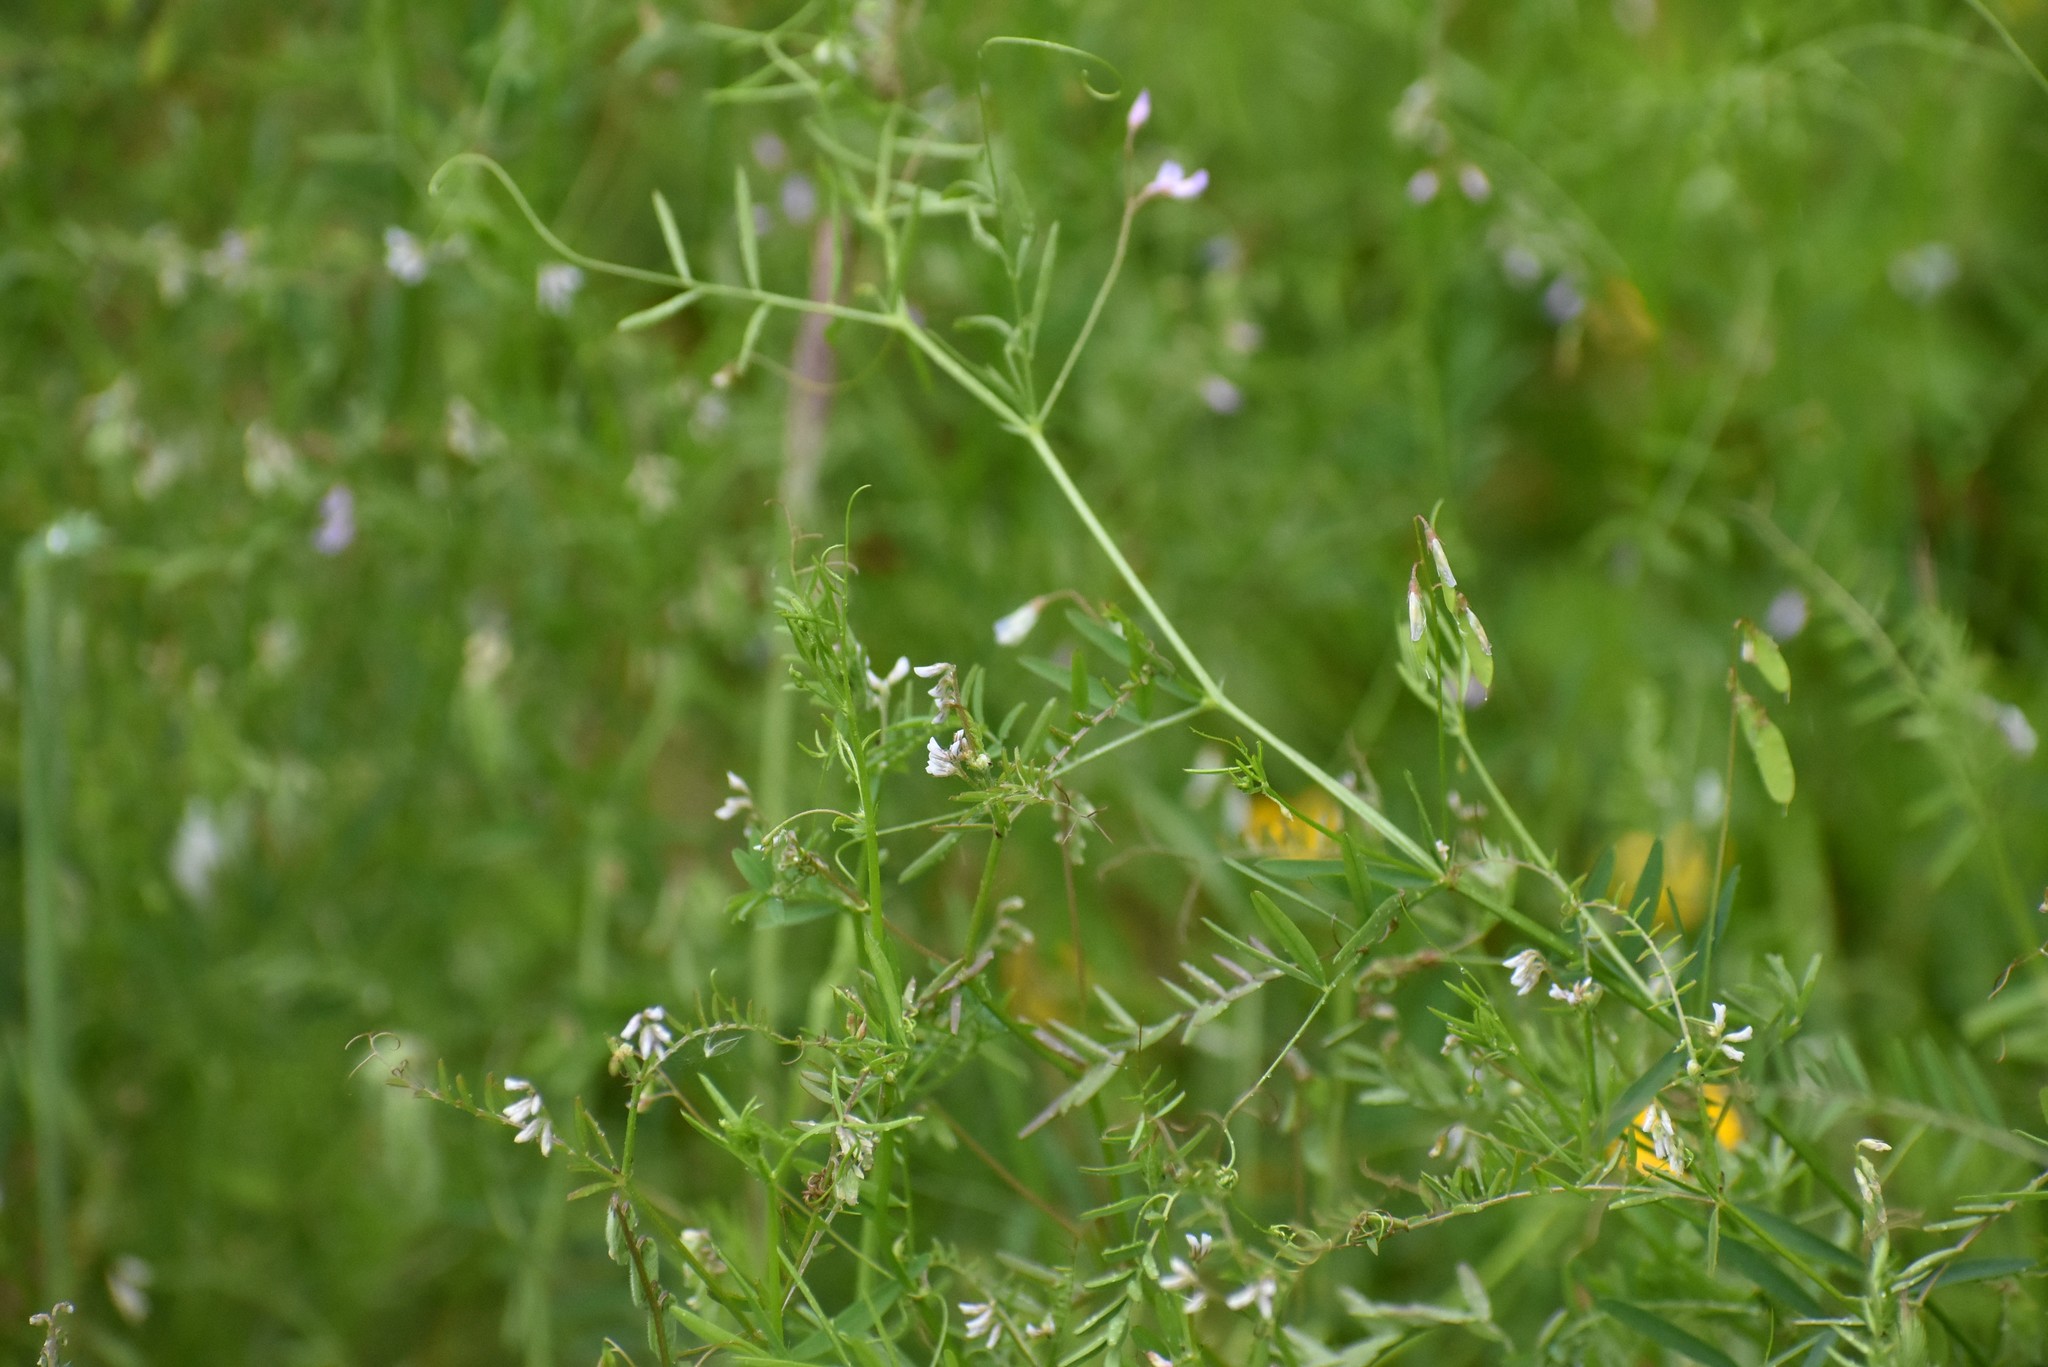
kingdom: Plantae
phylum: Tracheophyta
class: Magnoliopsida
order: Fabales
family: Fabaceae
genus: Vicia
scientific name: Vicia hirsuta
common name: Tiny vetch
